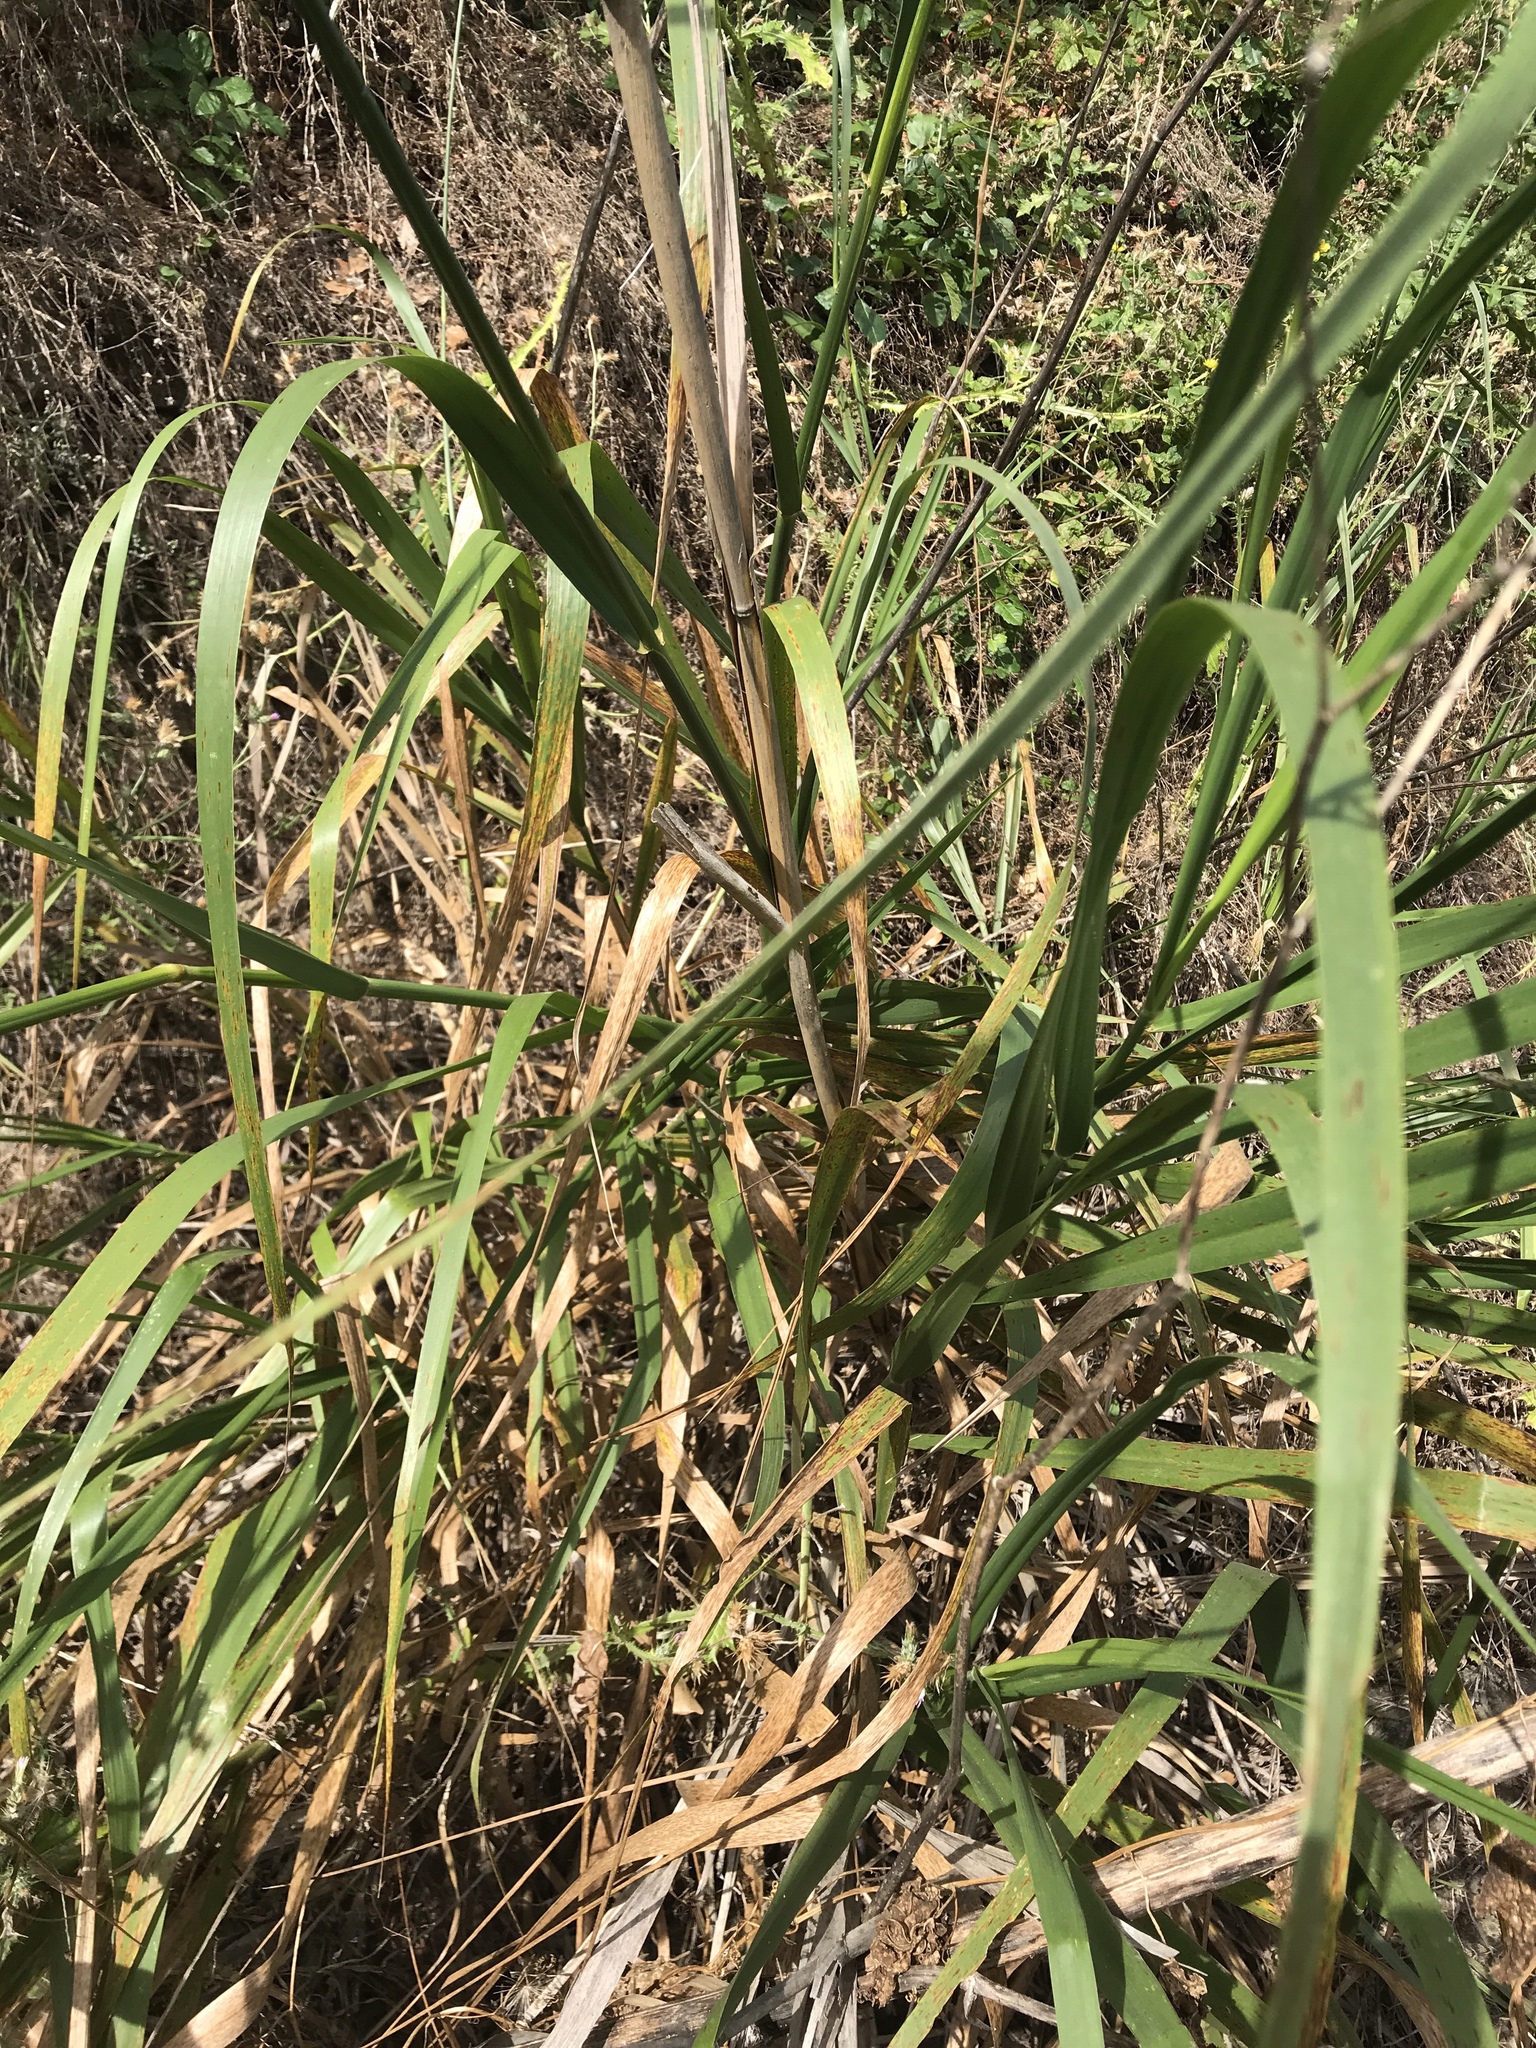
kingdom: Plantae
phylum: Tracheophyta
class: Liliopsida
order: Poales
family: Poaceae
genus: Leymus
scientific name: Leymus condensatus
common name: Giant wild rye
